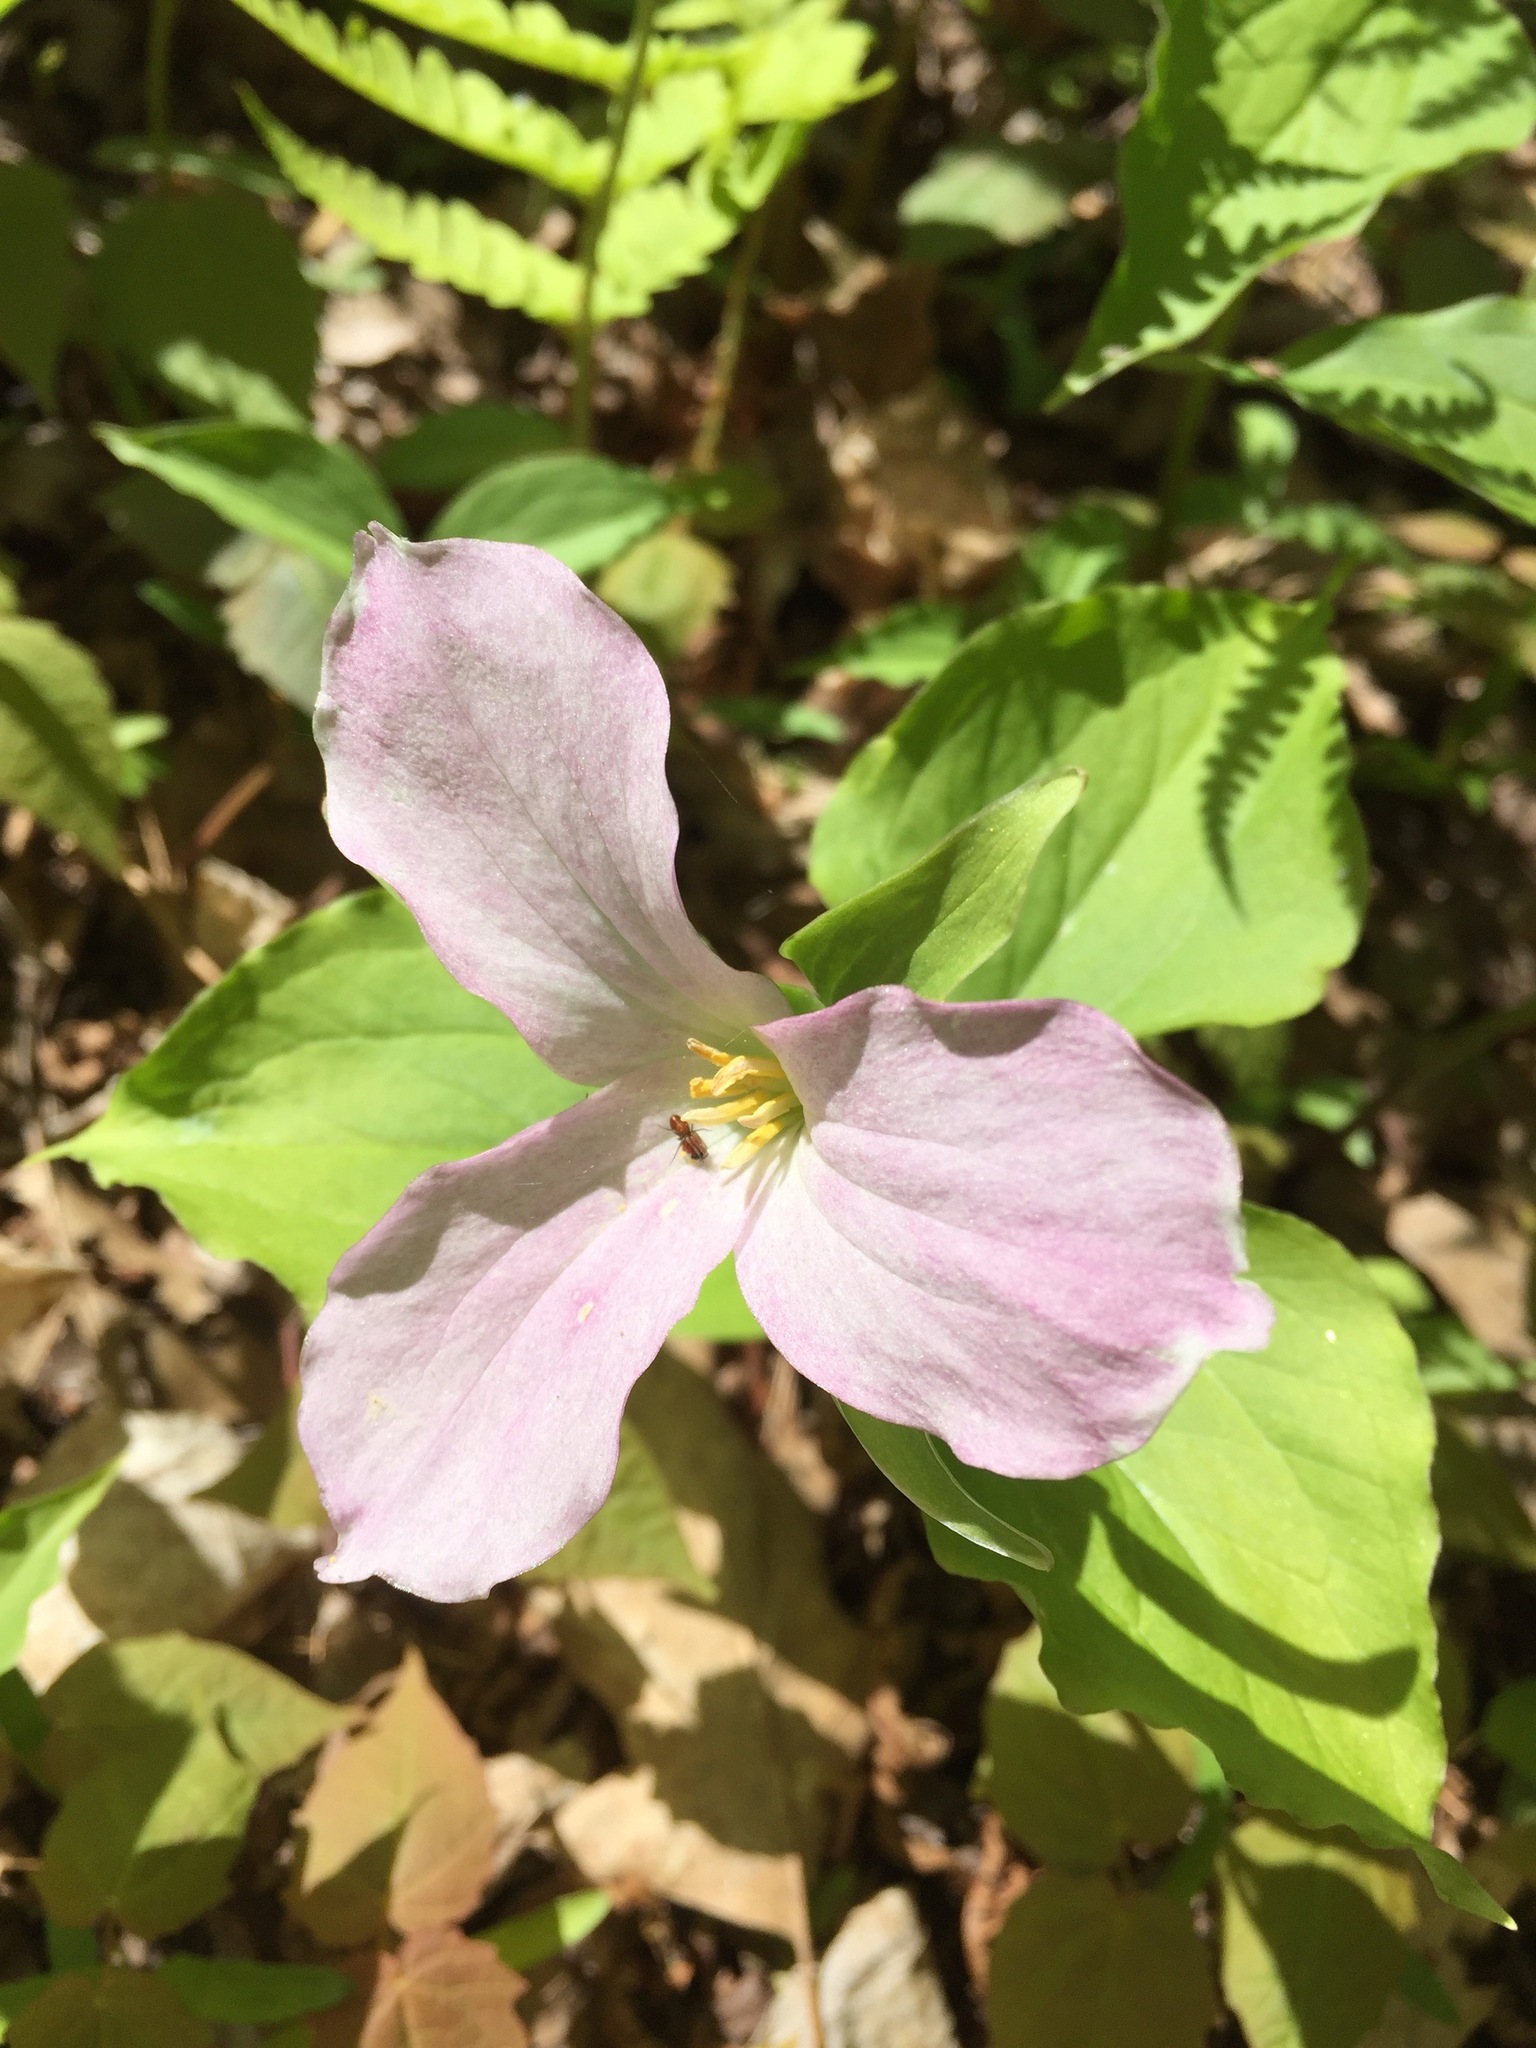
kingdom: Plantae
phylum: Tracheophyta
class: Liliopsida
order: Liliales
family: Melanthiaceae
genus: Trillium
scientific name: Trillium grandiflorum
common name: Great white trillium
